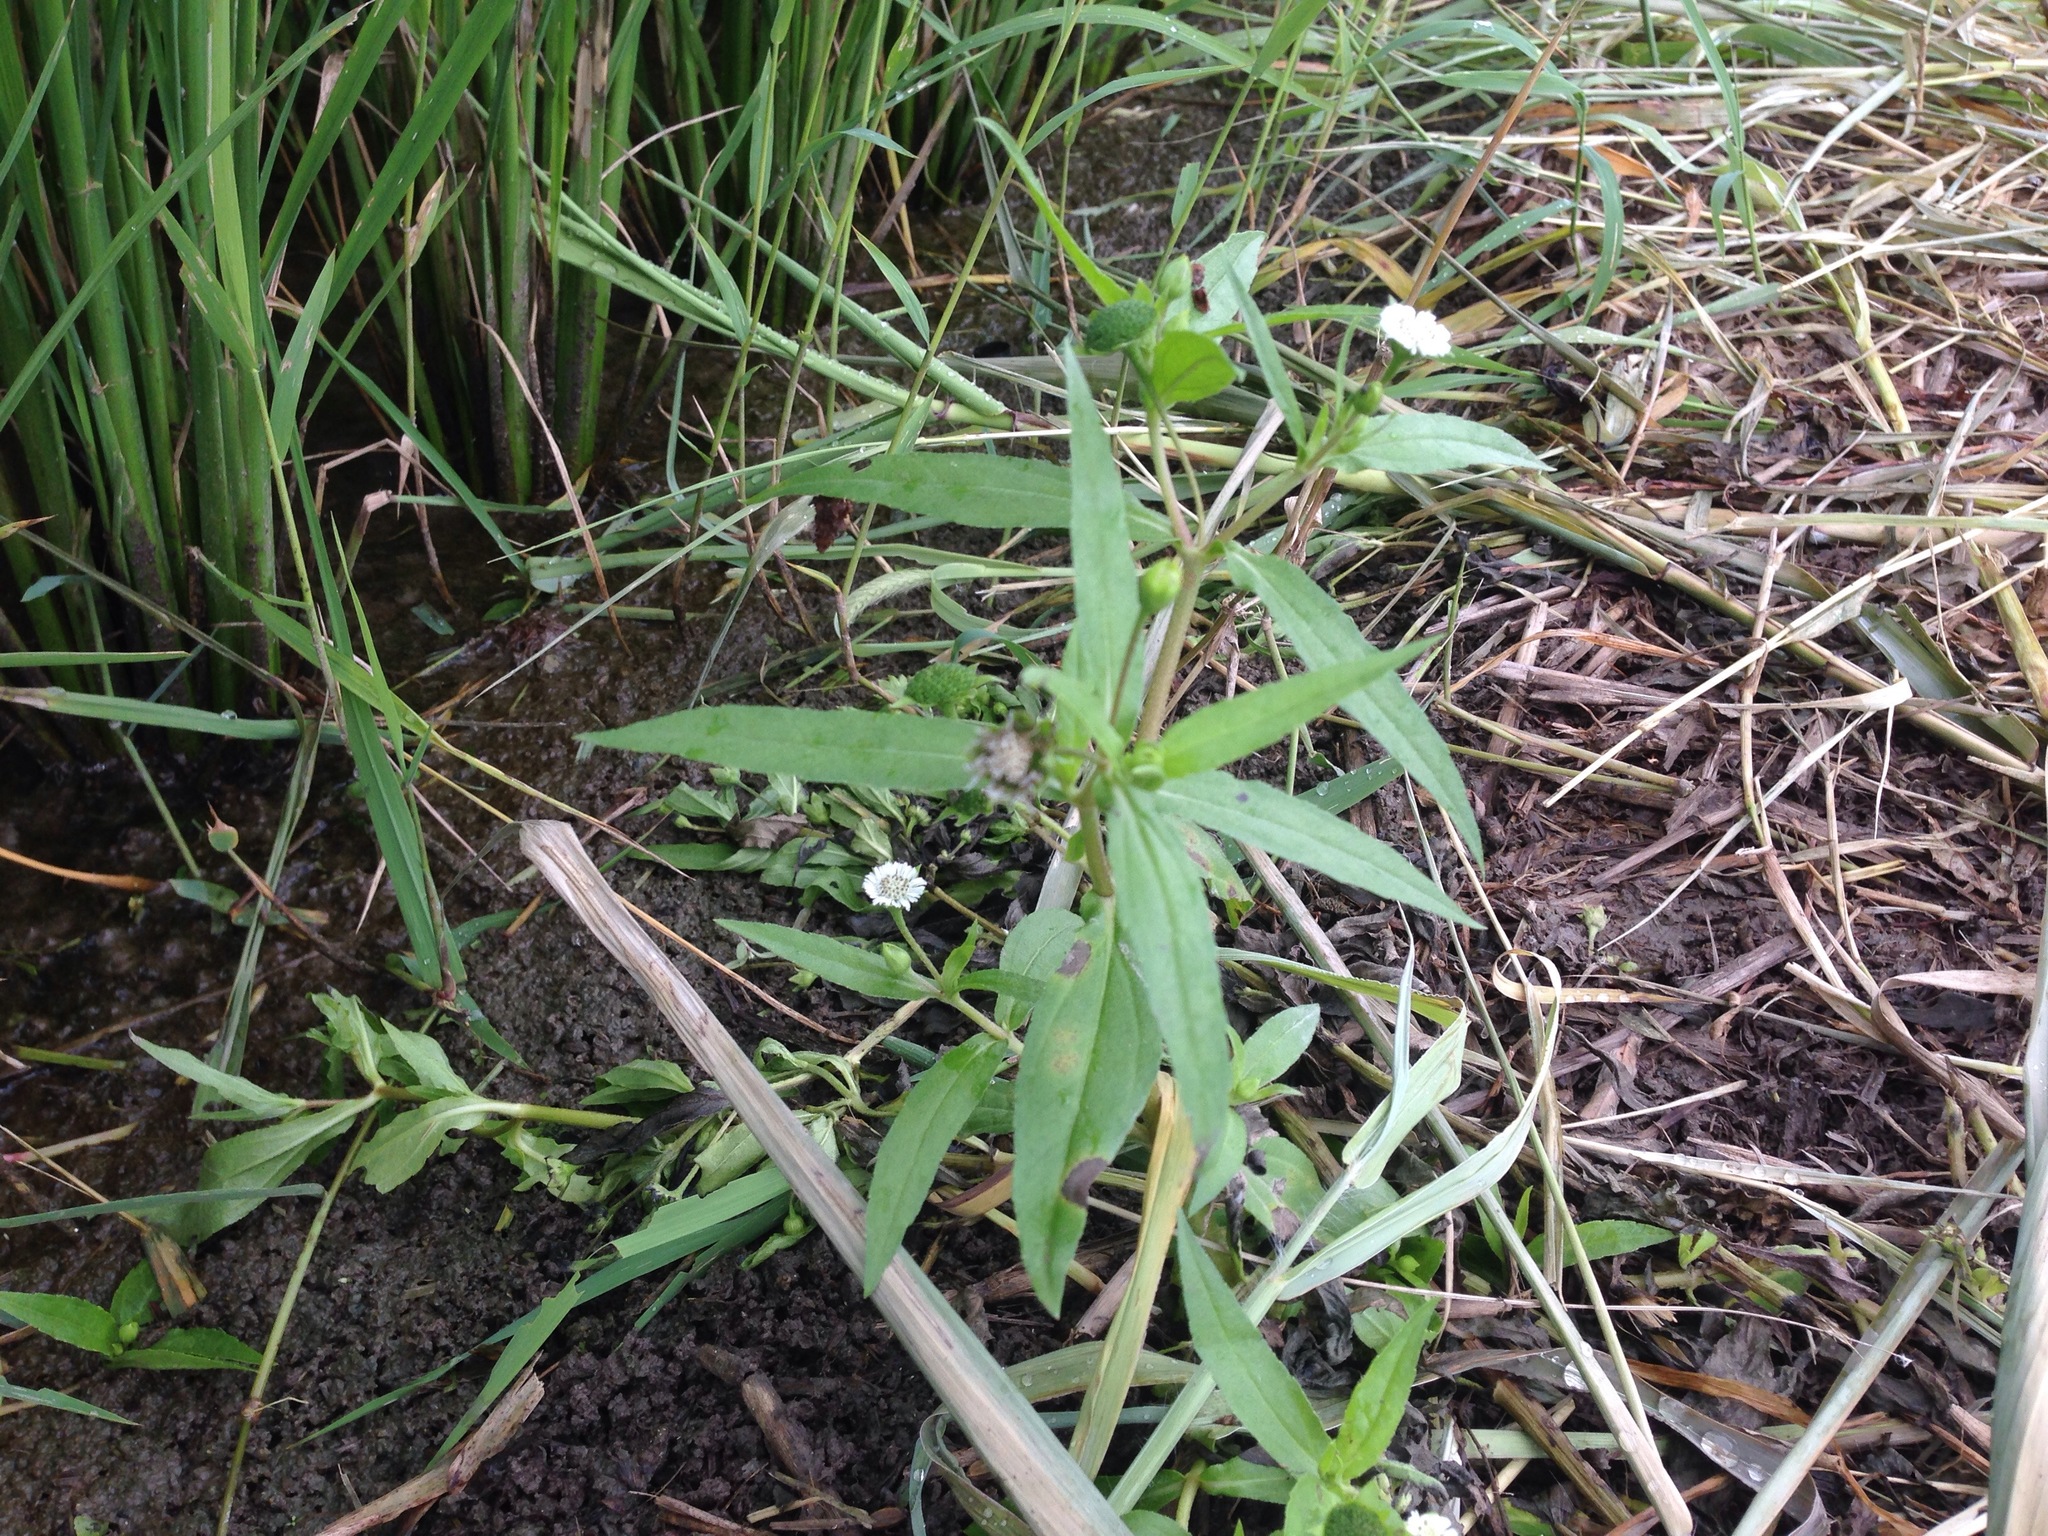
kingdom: Plantae
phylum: Tracheophyta
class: Magnoliopsida
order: Asterales
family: Asteraceae
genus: Eclipta
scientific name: Eclipta prostrata
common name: False daisy
